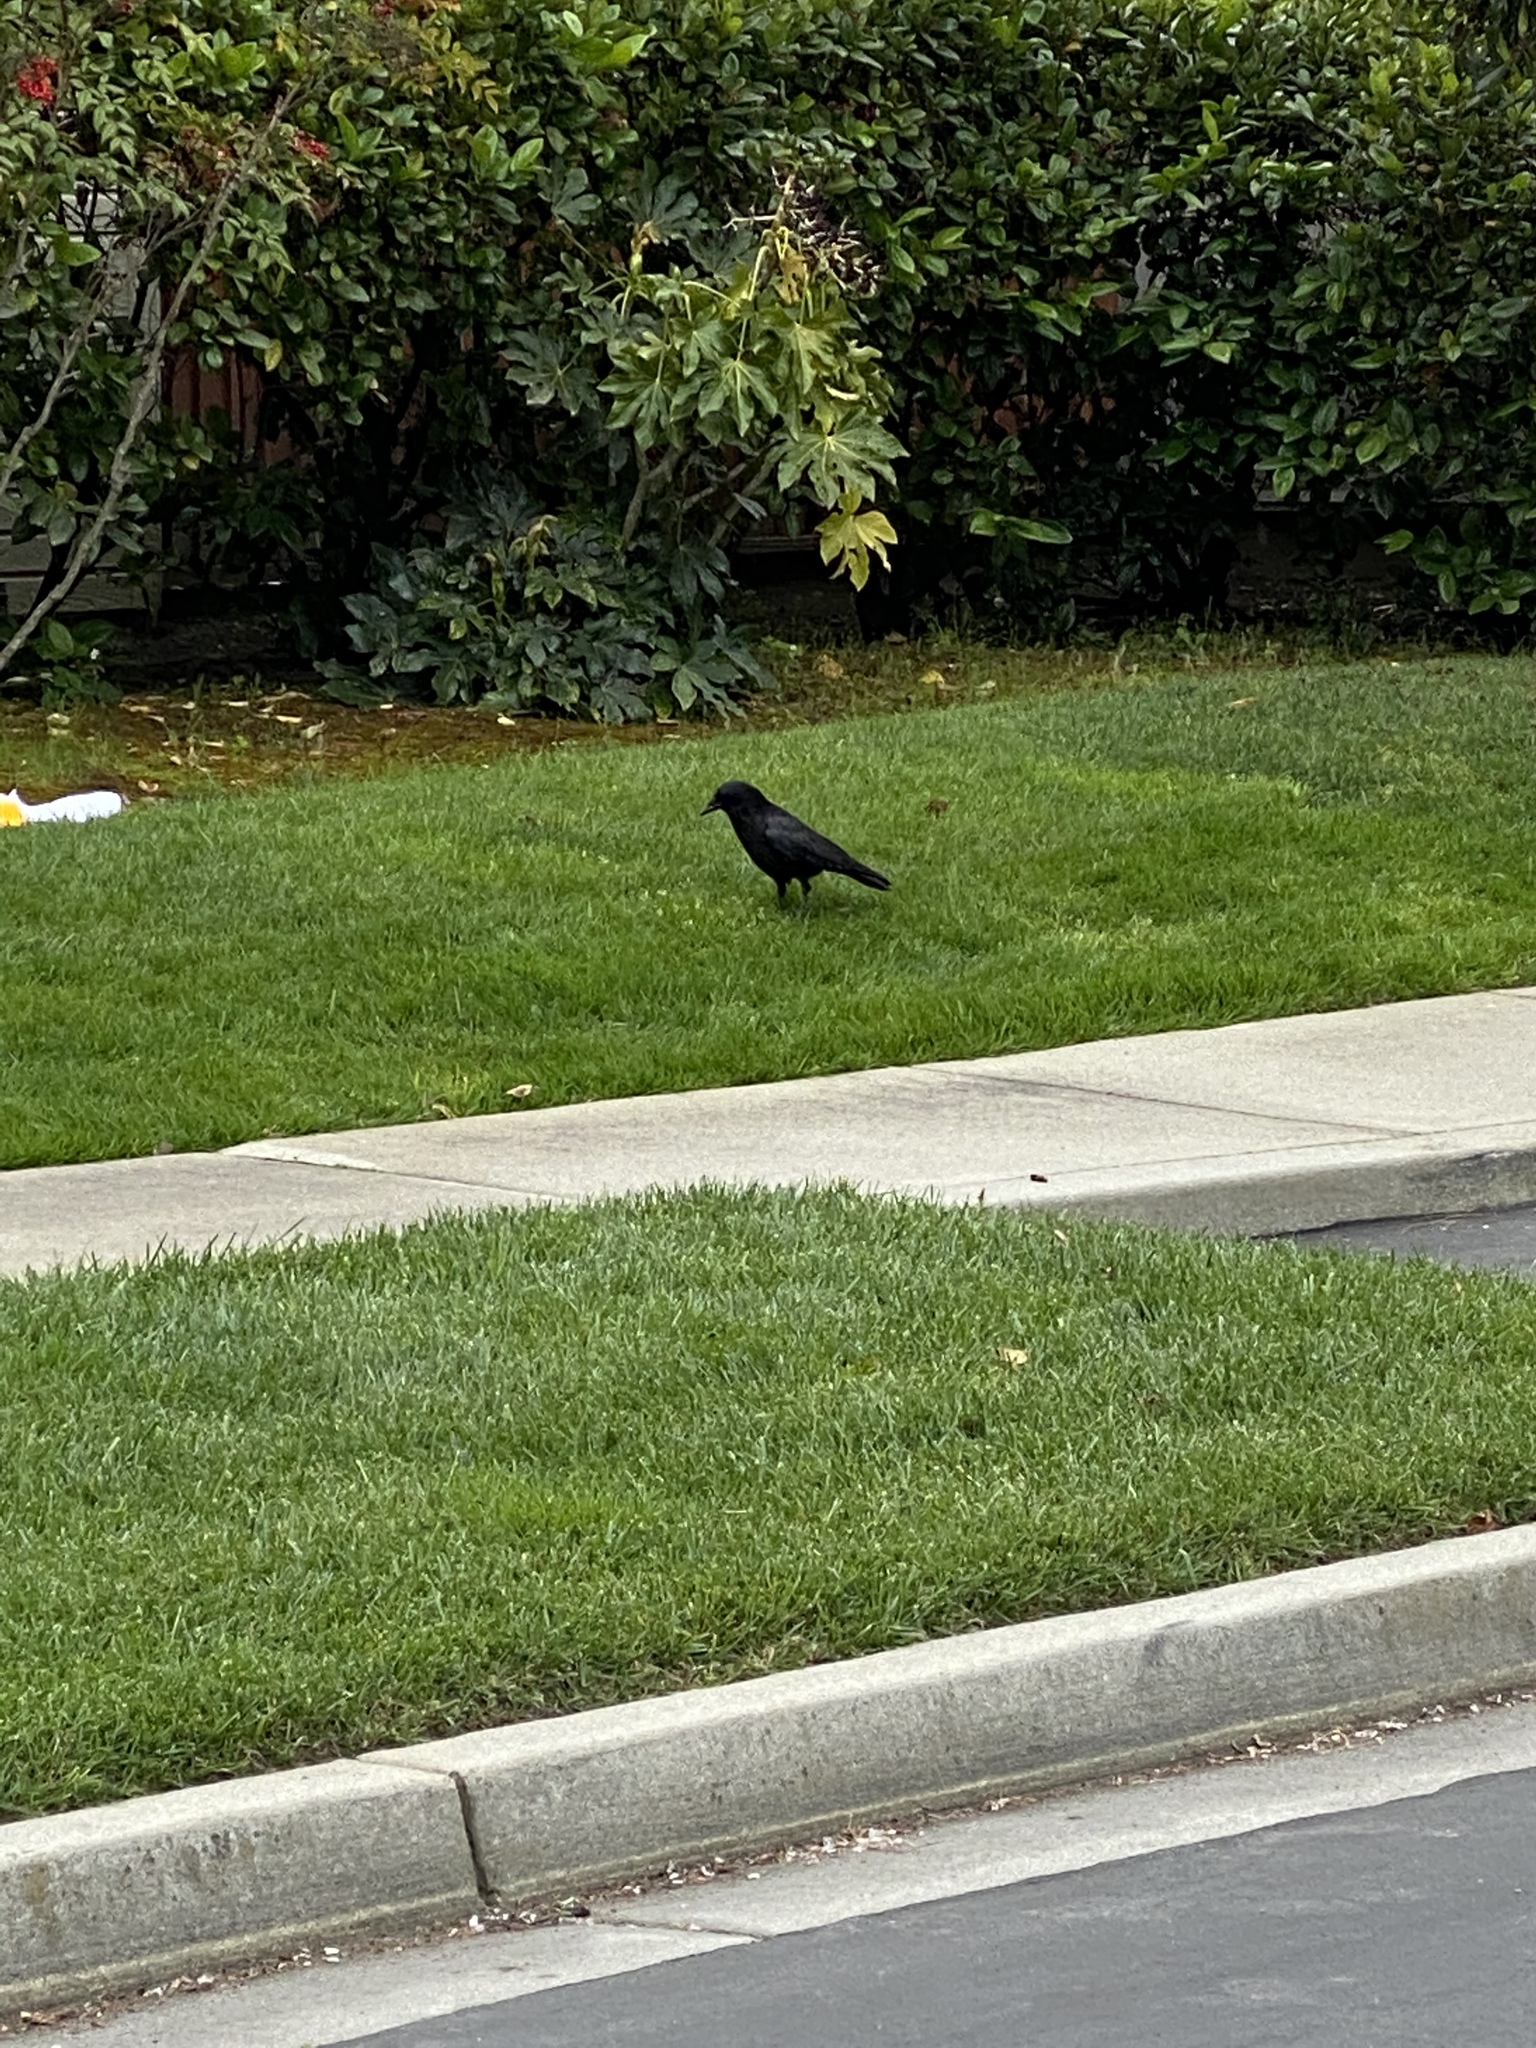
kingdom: Animalia
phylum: Chordata
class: Aves
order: Passeriformes
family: Corvidae
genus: Corvus
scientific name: Corvus brachyrhynchos
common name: American crow
